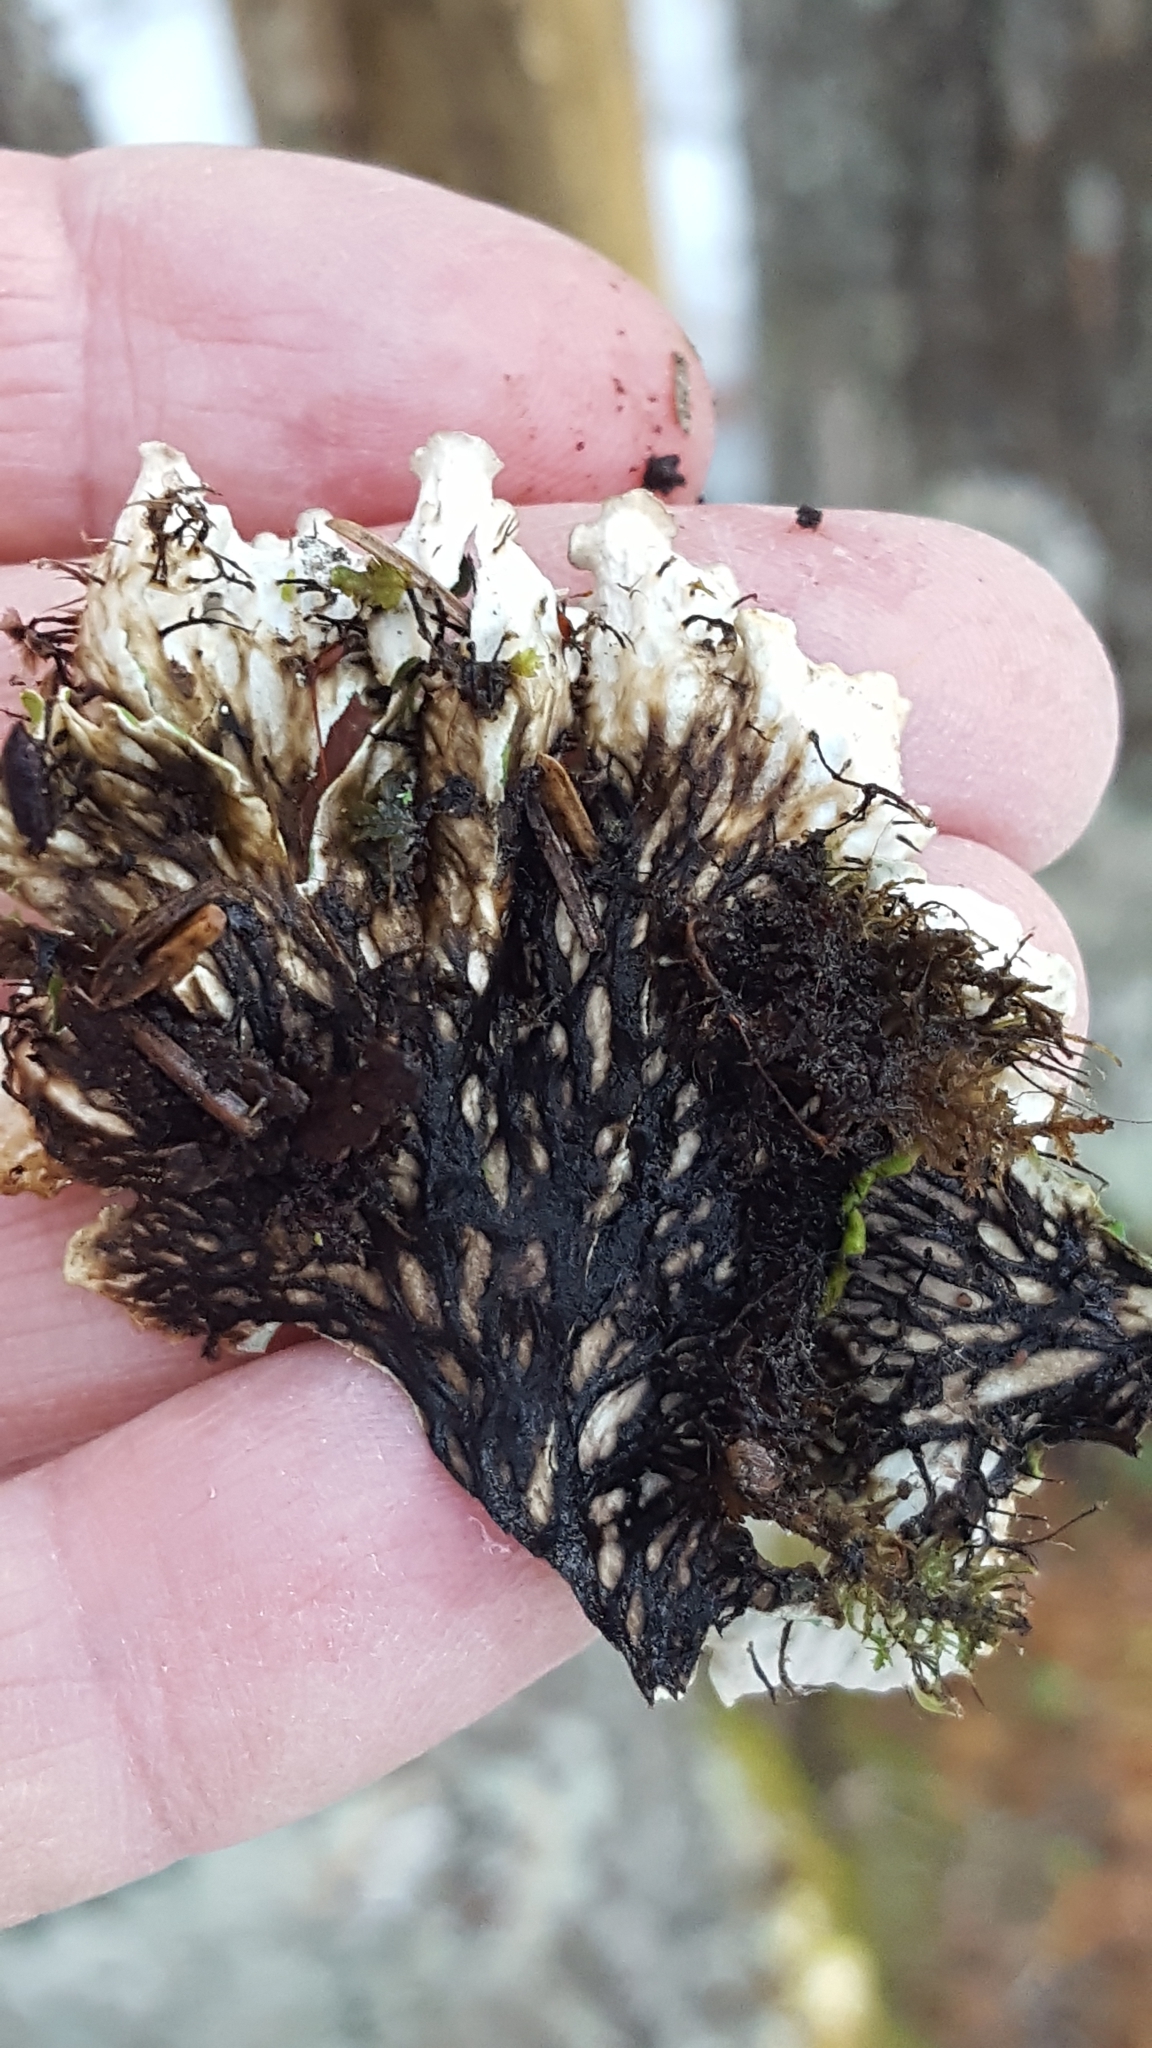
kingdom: Fungi
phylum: Ascomycota
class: Lecanoromycetes
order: Peltigerales
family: Peltigeraceae
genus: Peltigera
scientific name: Peltigera leucophlebia
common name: Ruffled freckle pelt lichen
